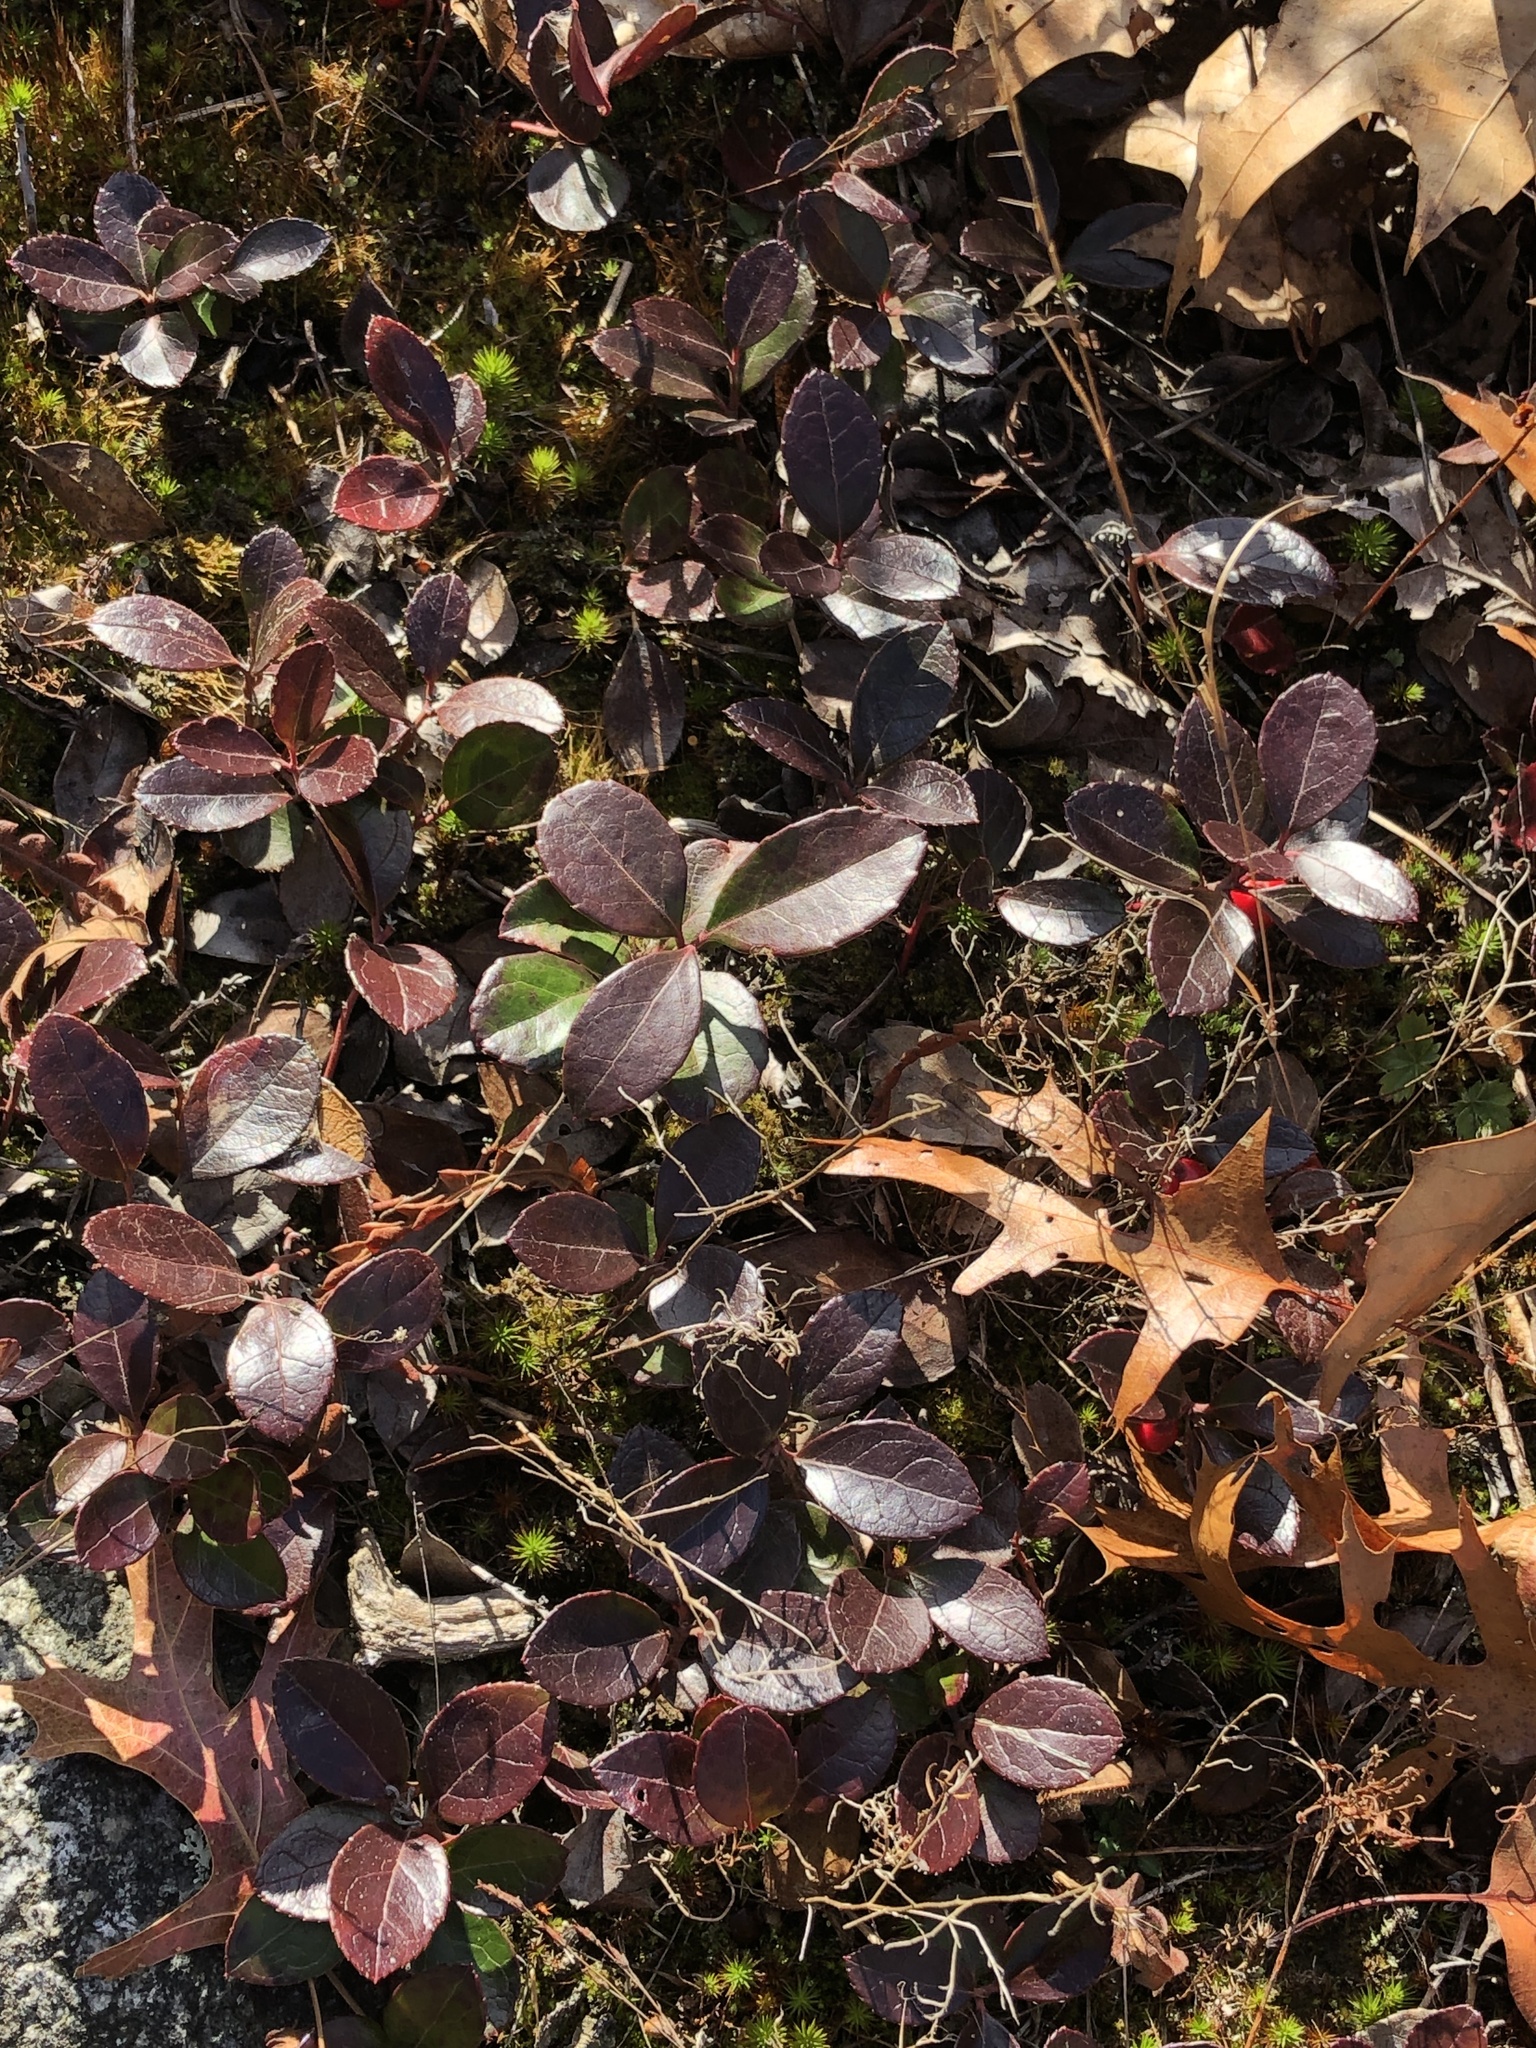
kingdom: Plantae
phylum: Tracheophyta
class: Magnoliopsida
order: Ericales
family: Ericaceae
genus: Gaultheria
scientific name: Gaultheria procumbens
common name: Checkerberry
